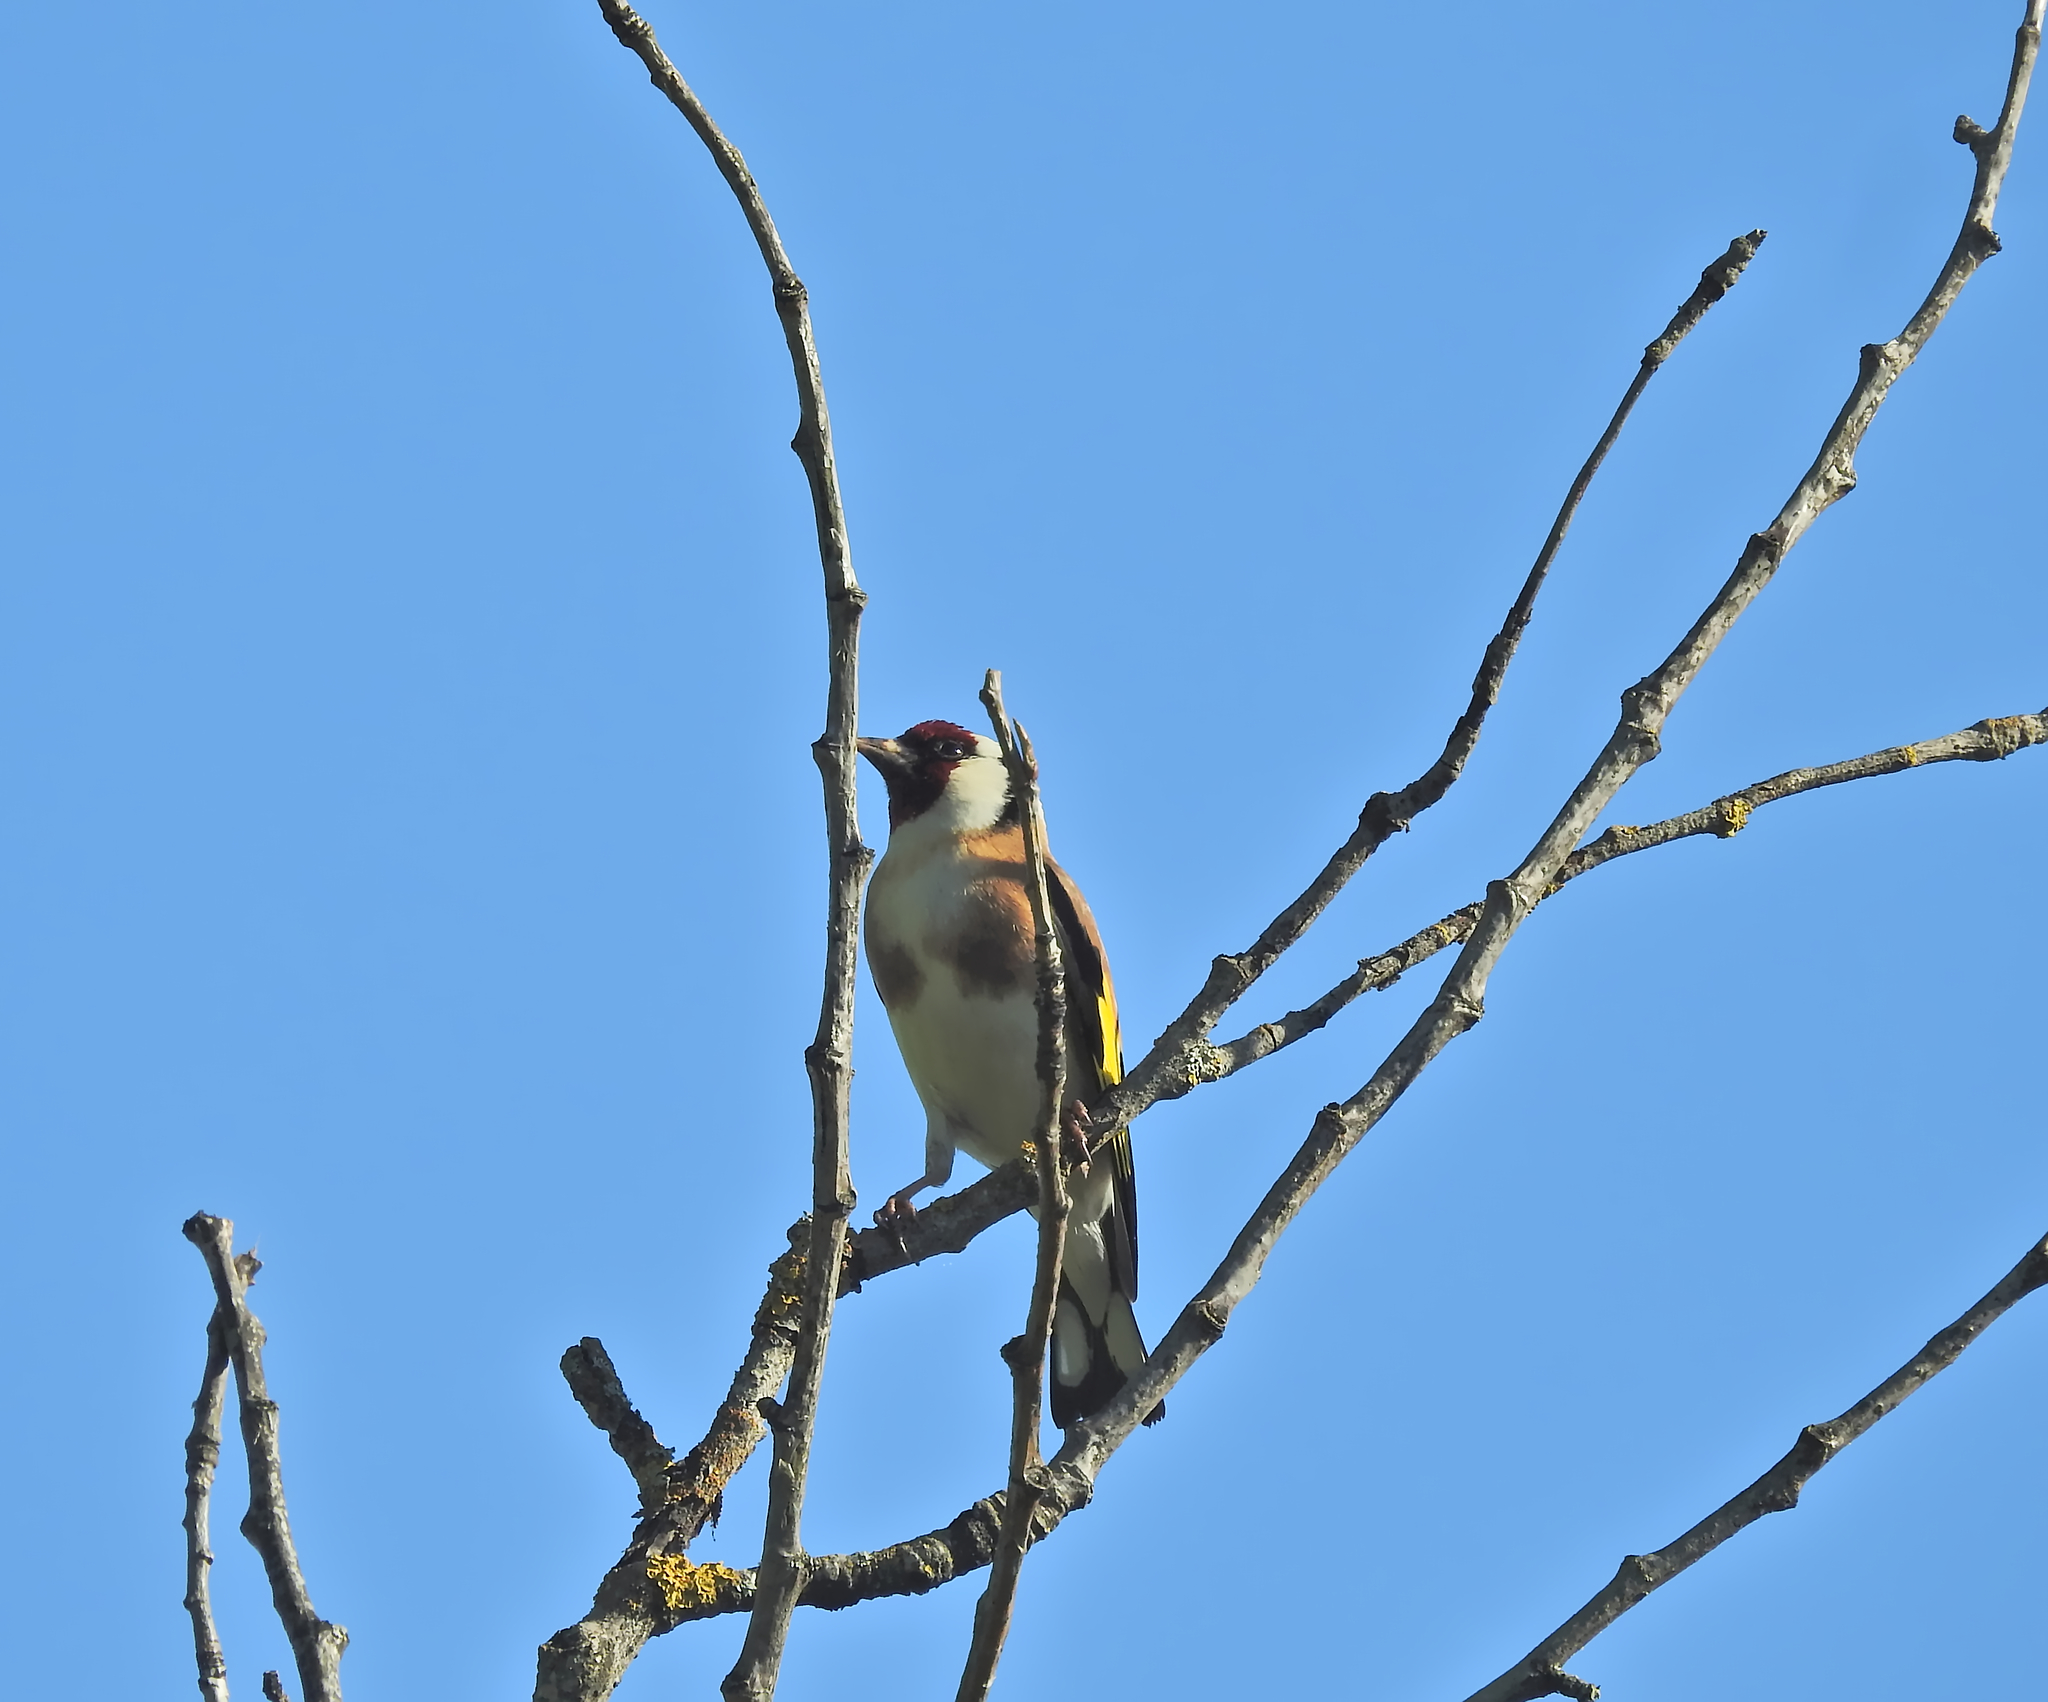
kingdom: Animalia
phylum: Chordata
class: Aves
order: Passeriformes
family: Fringillidae
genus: Carduelis
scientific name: Carduelis carduelis
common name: European goldfinch
